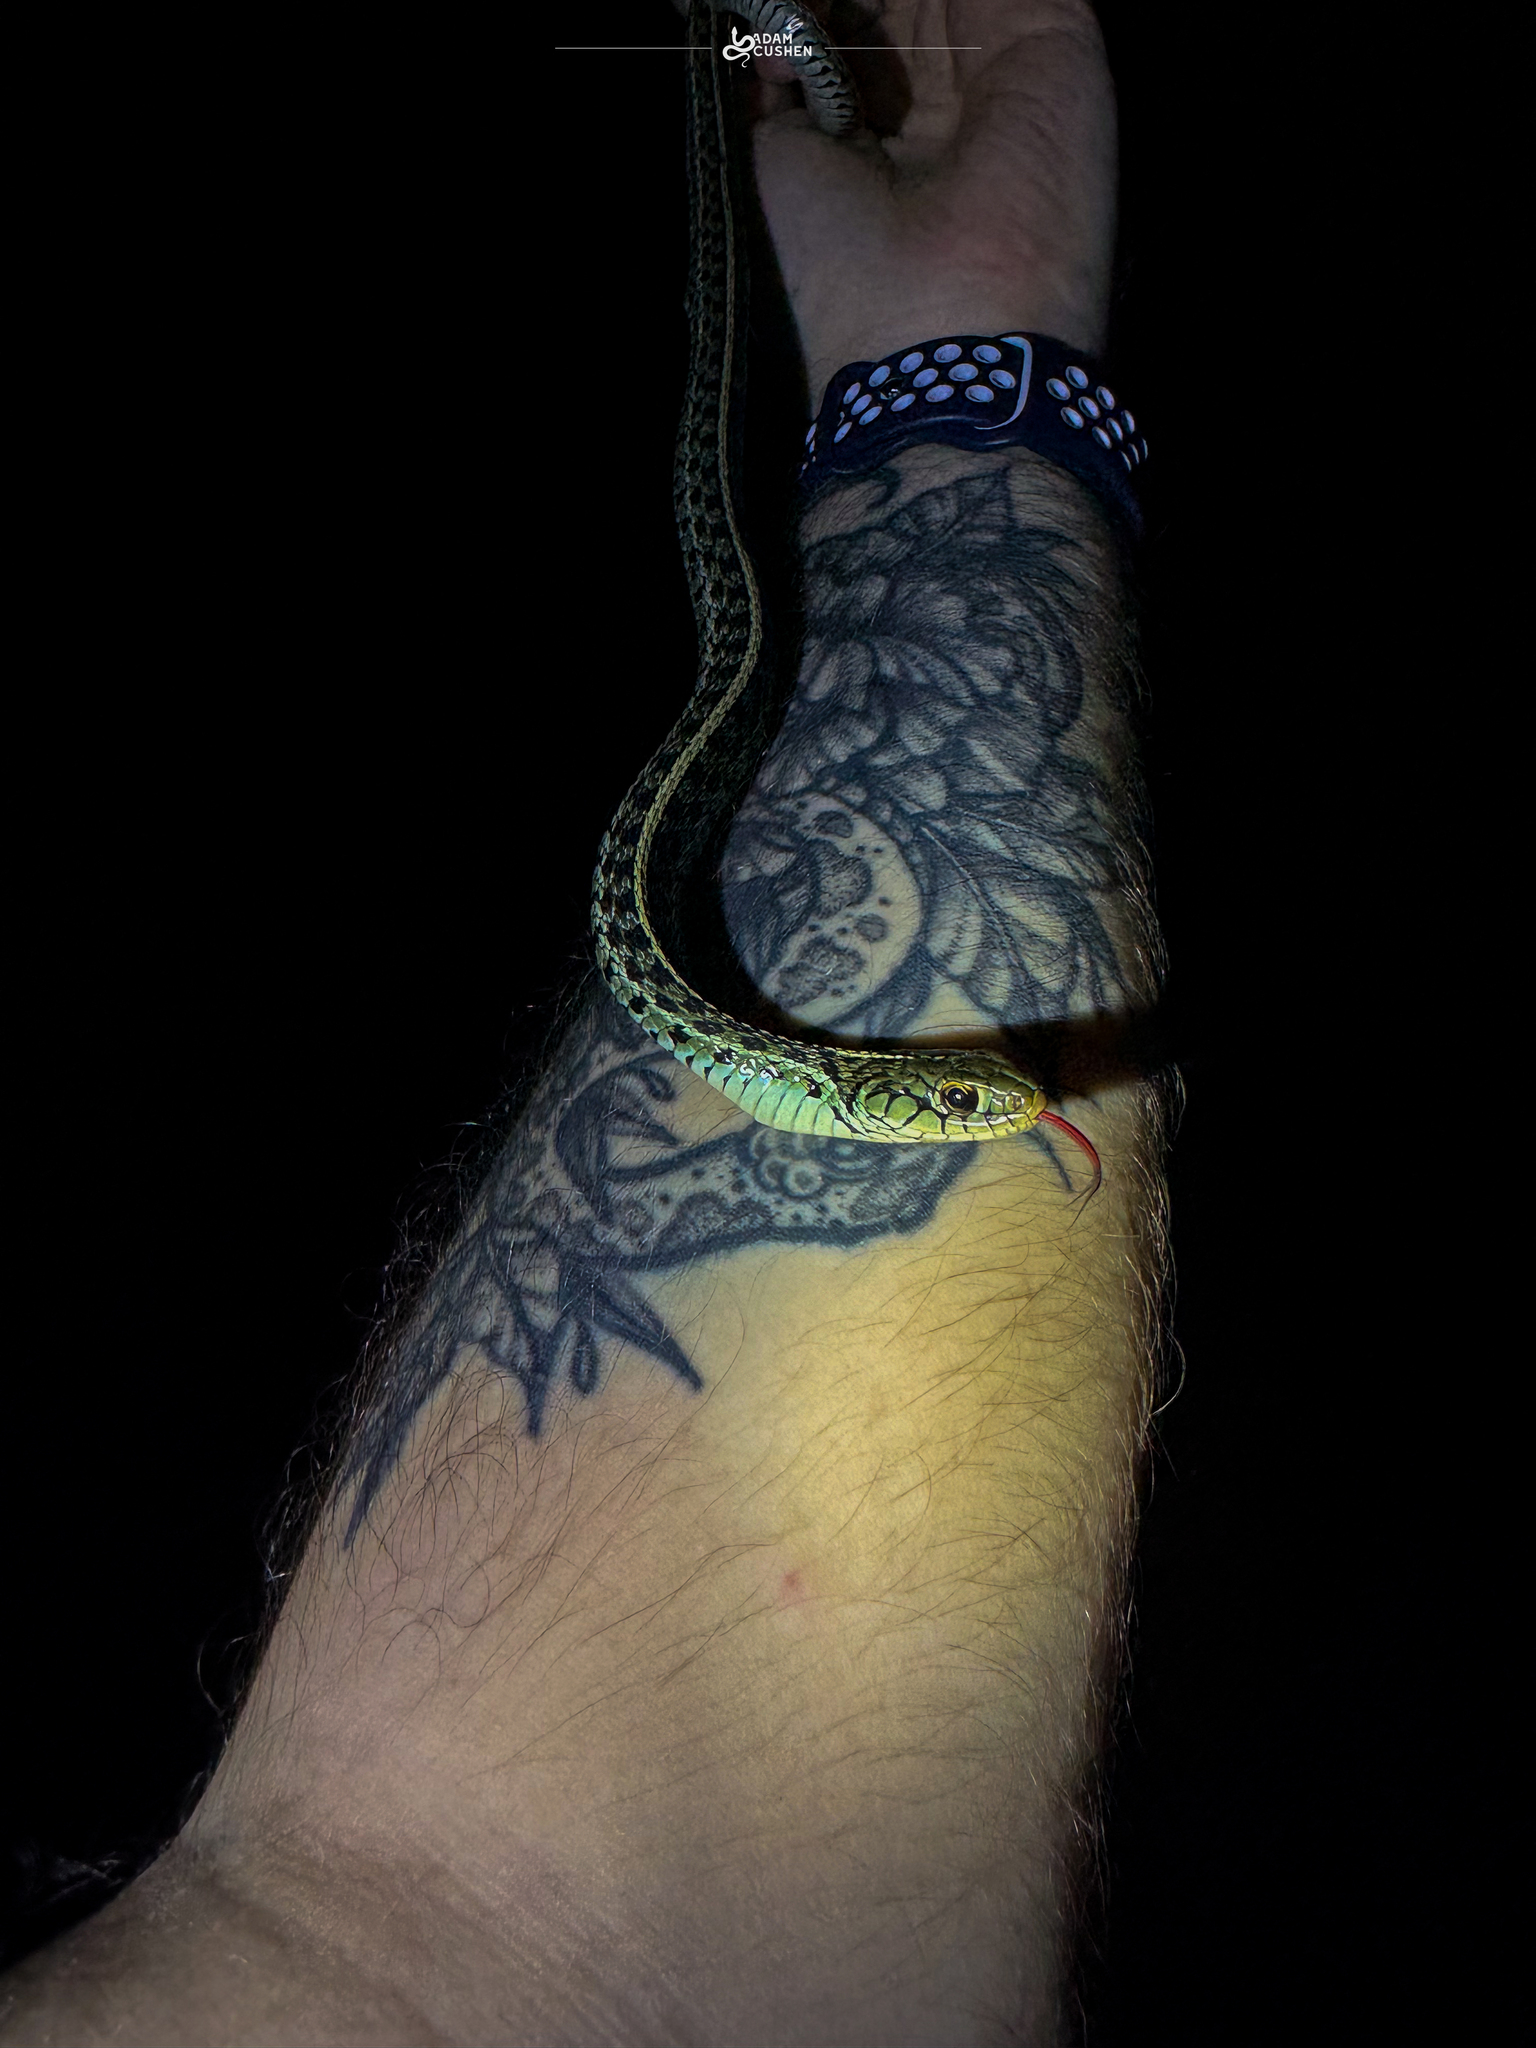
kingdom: Animalia
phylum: Chordata
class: Squamata
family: Colubridae
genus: Thamnophis
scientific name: Thamnophis sirtalis
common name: Common garter snake
